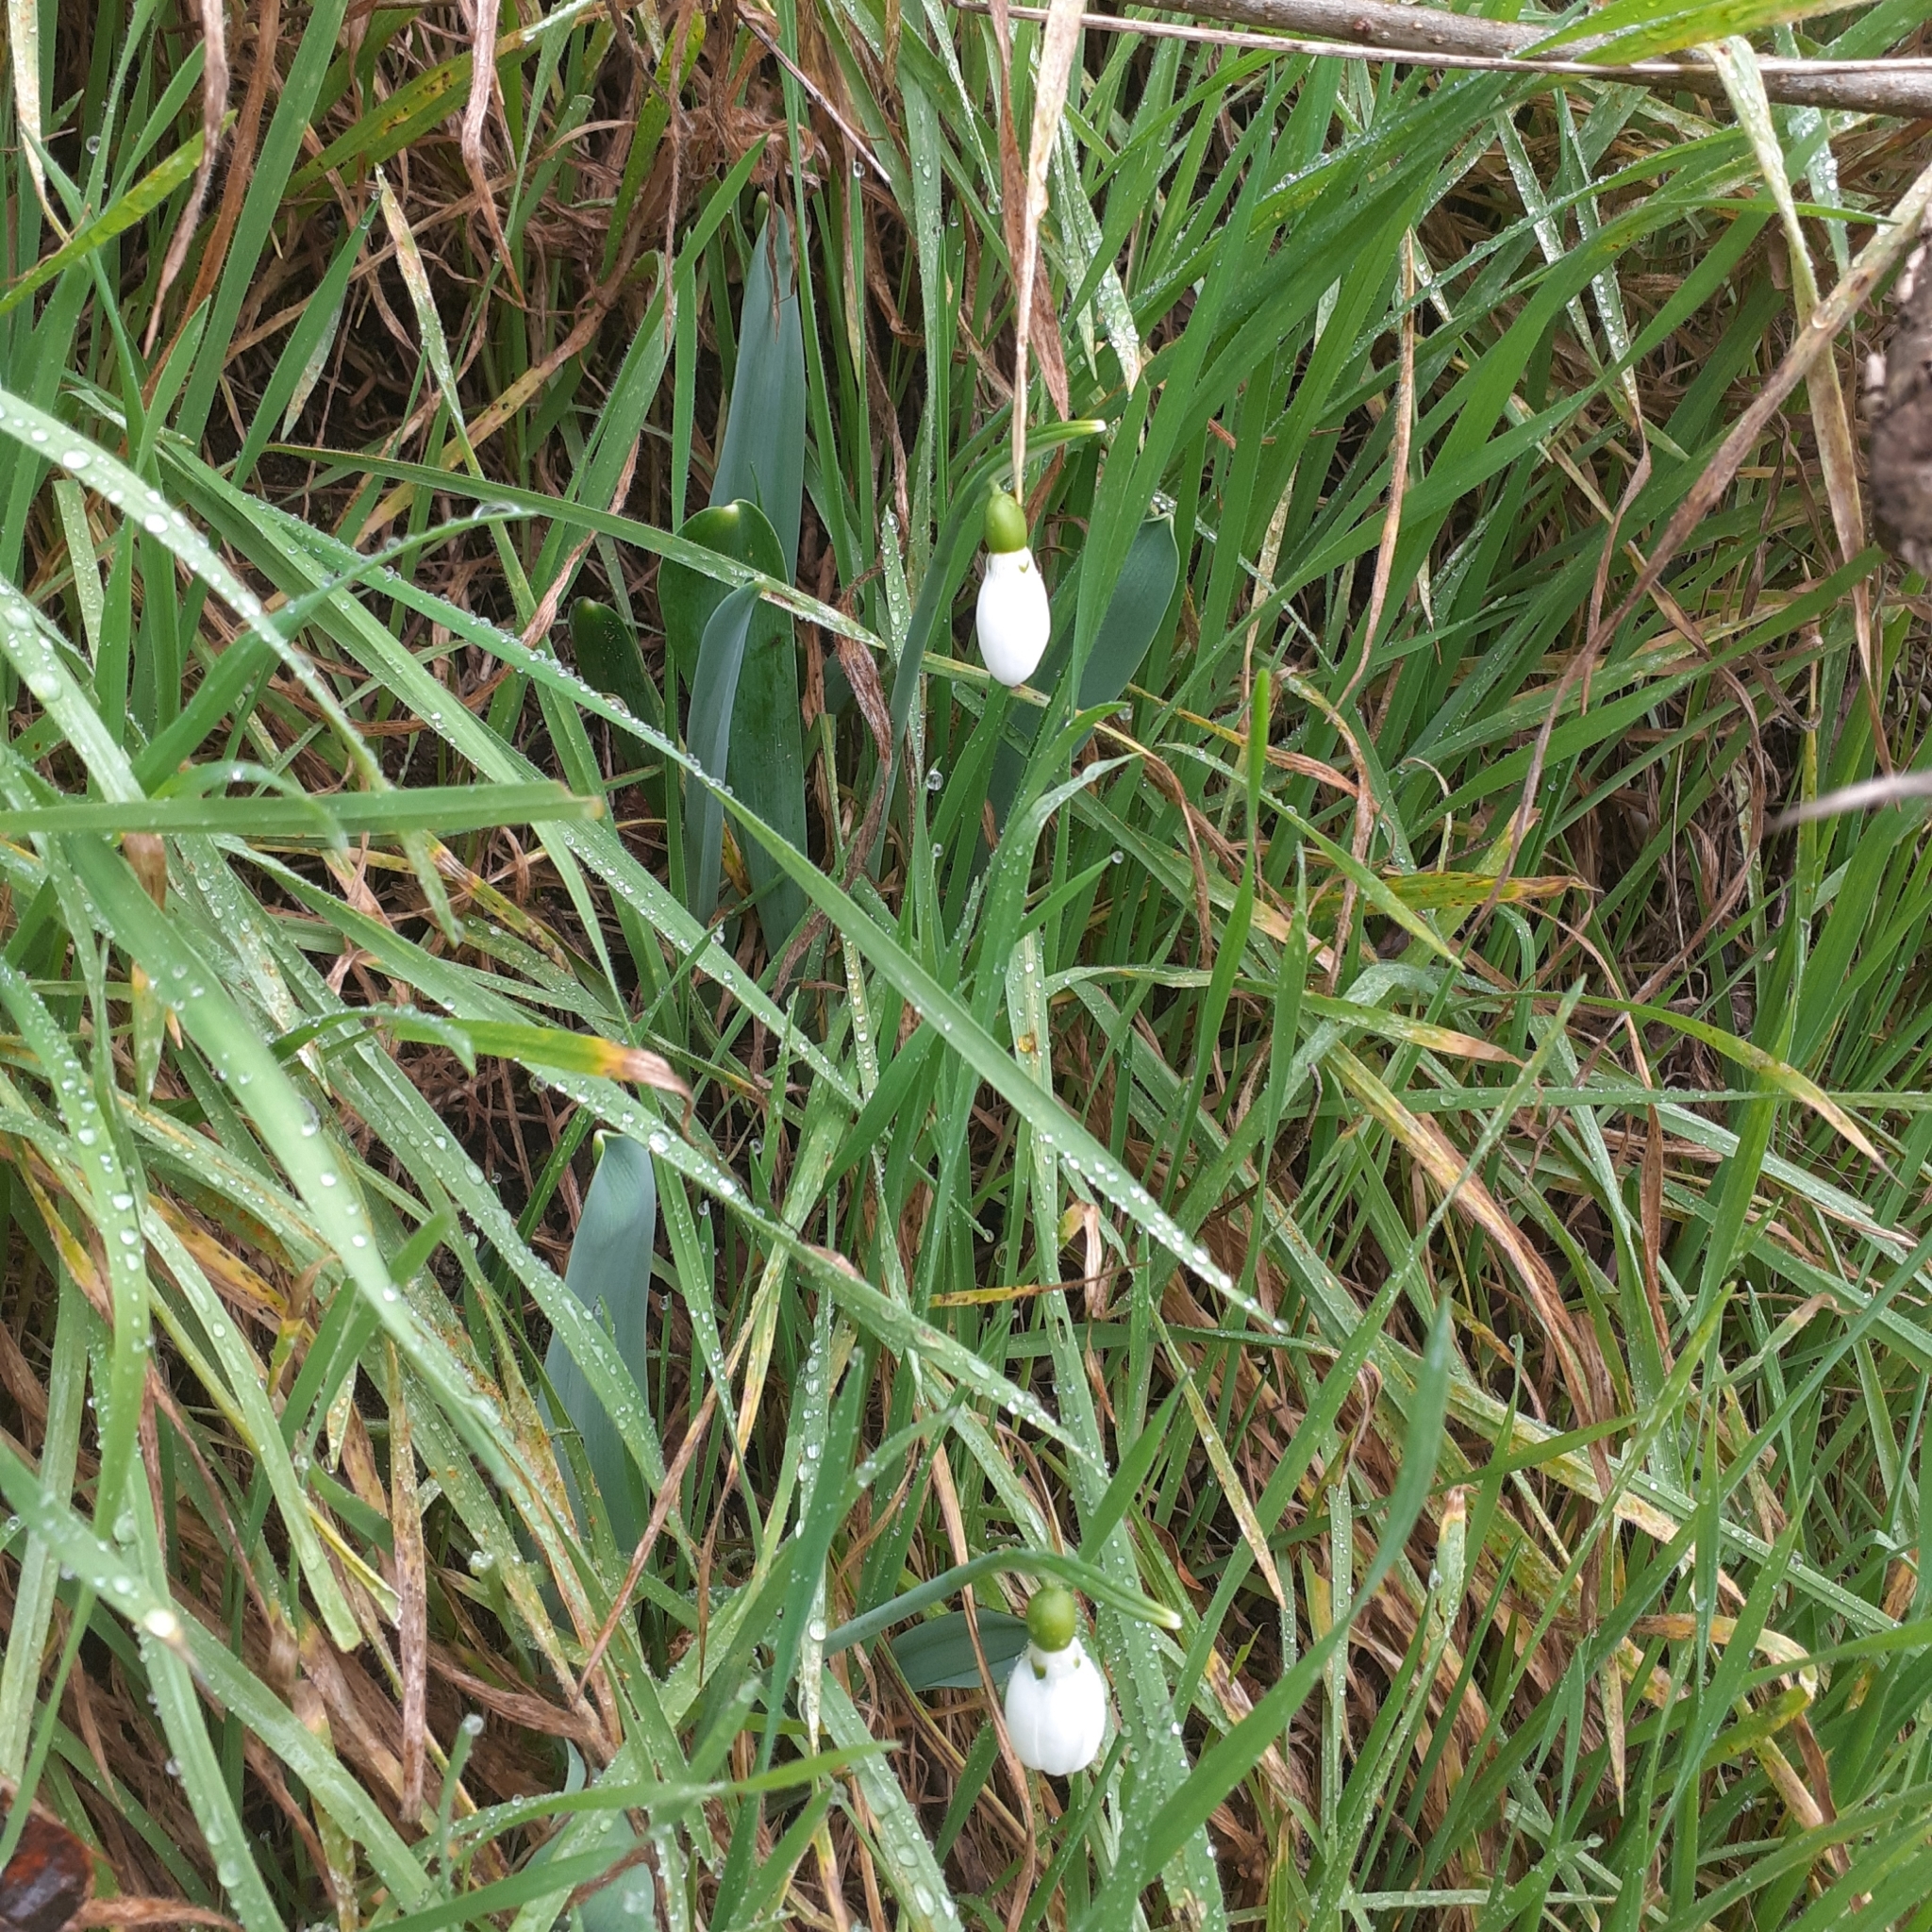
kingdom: Plantae
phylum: Tracheophyta
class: Liliopsida
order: Asparagales
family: Amaryllidaceae
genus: Galanthus
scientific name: Galanthus nivalis
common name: Snowdrop
